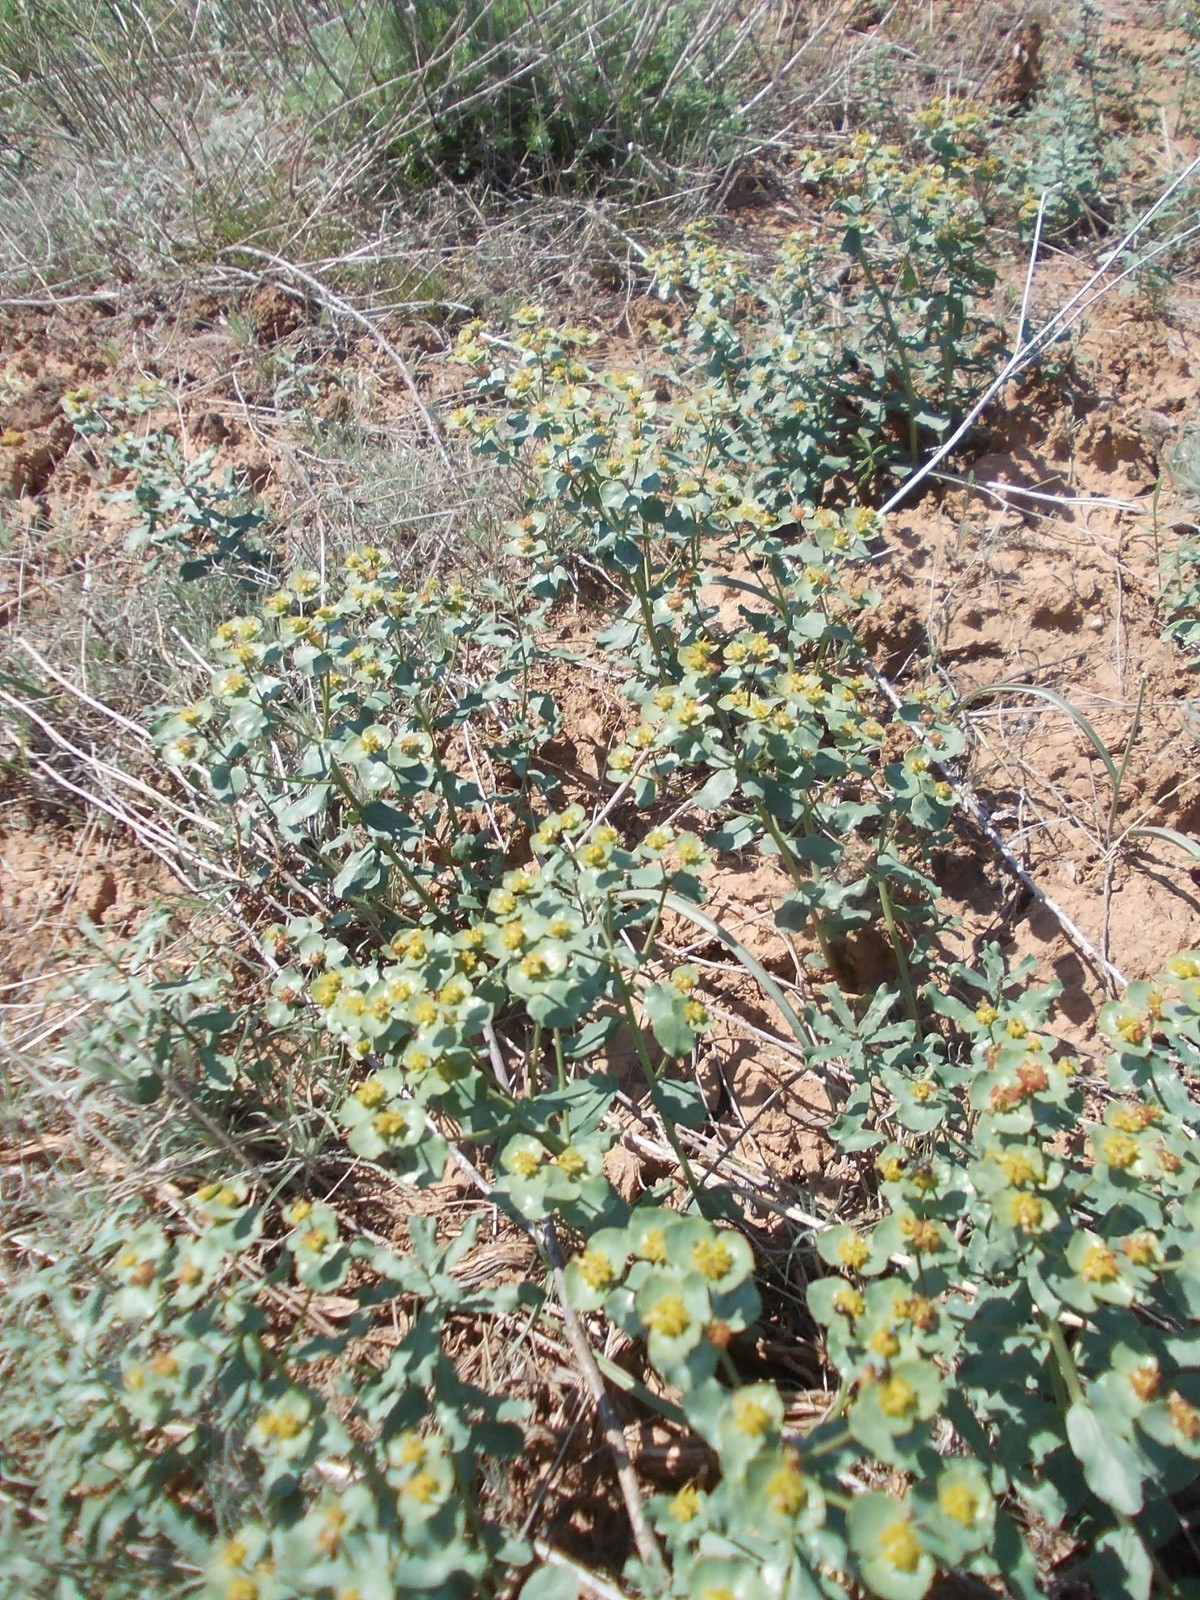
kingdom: Plantae
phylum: Tracheophyta
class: Magnoliopsida
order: Malpighiales
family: Euphorbiaceae
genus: Euphorbia
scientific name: Euphorbia undulata
